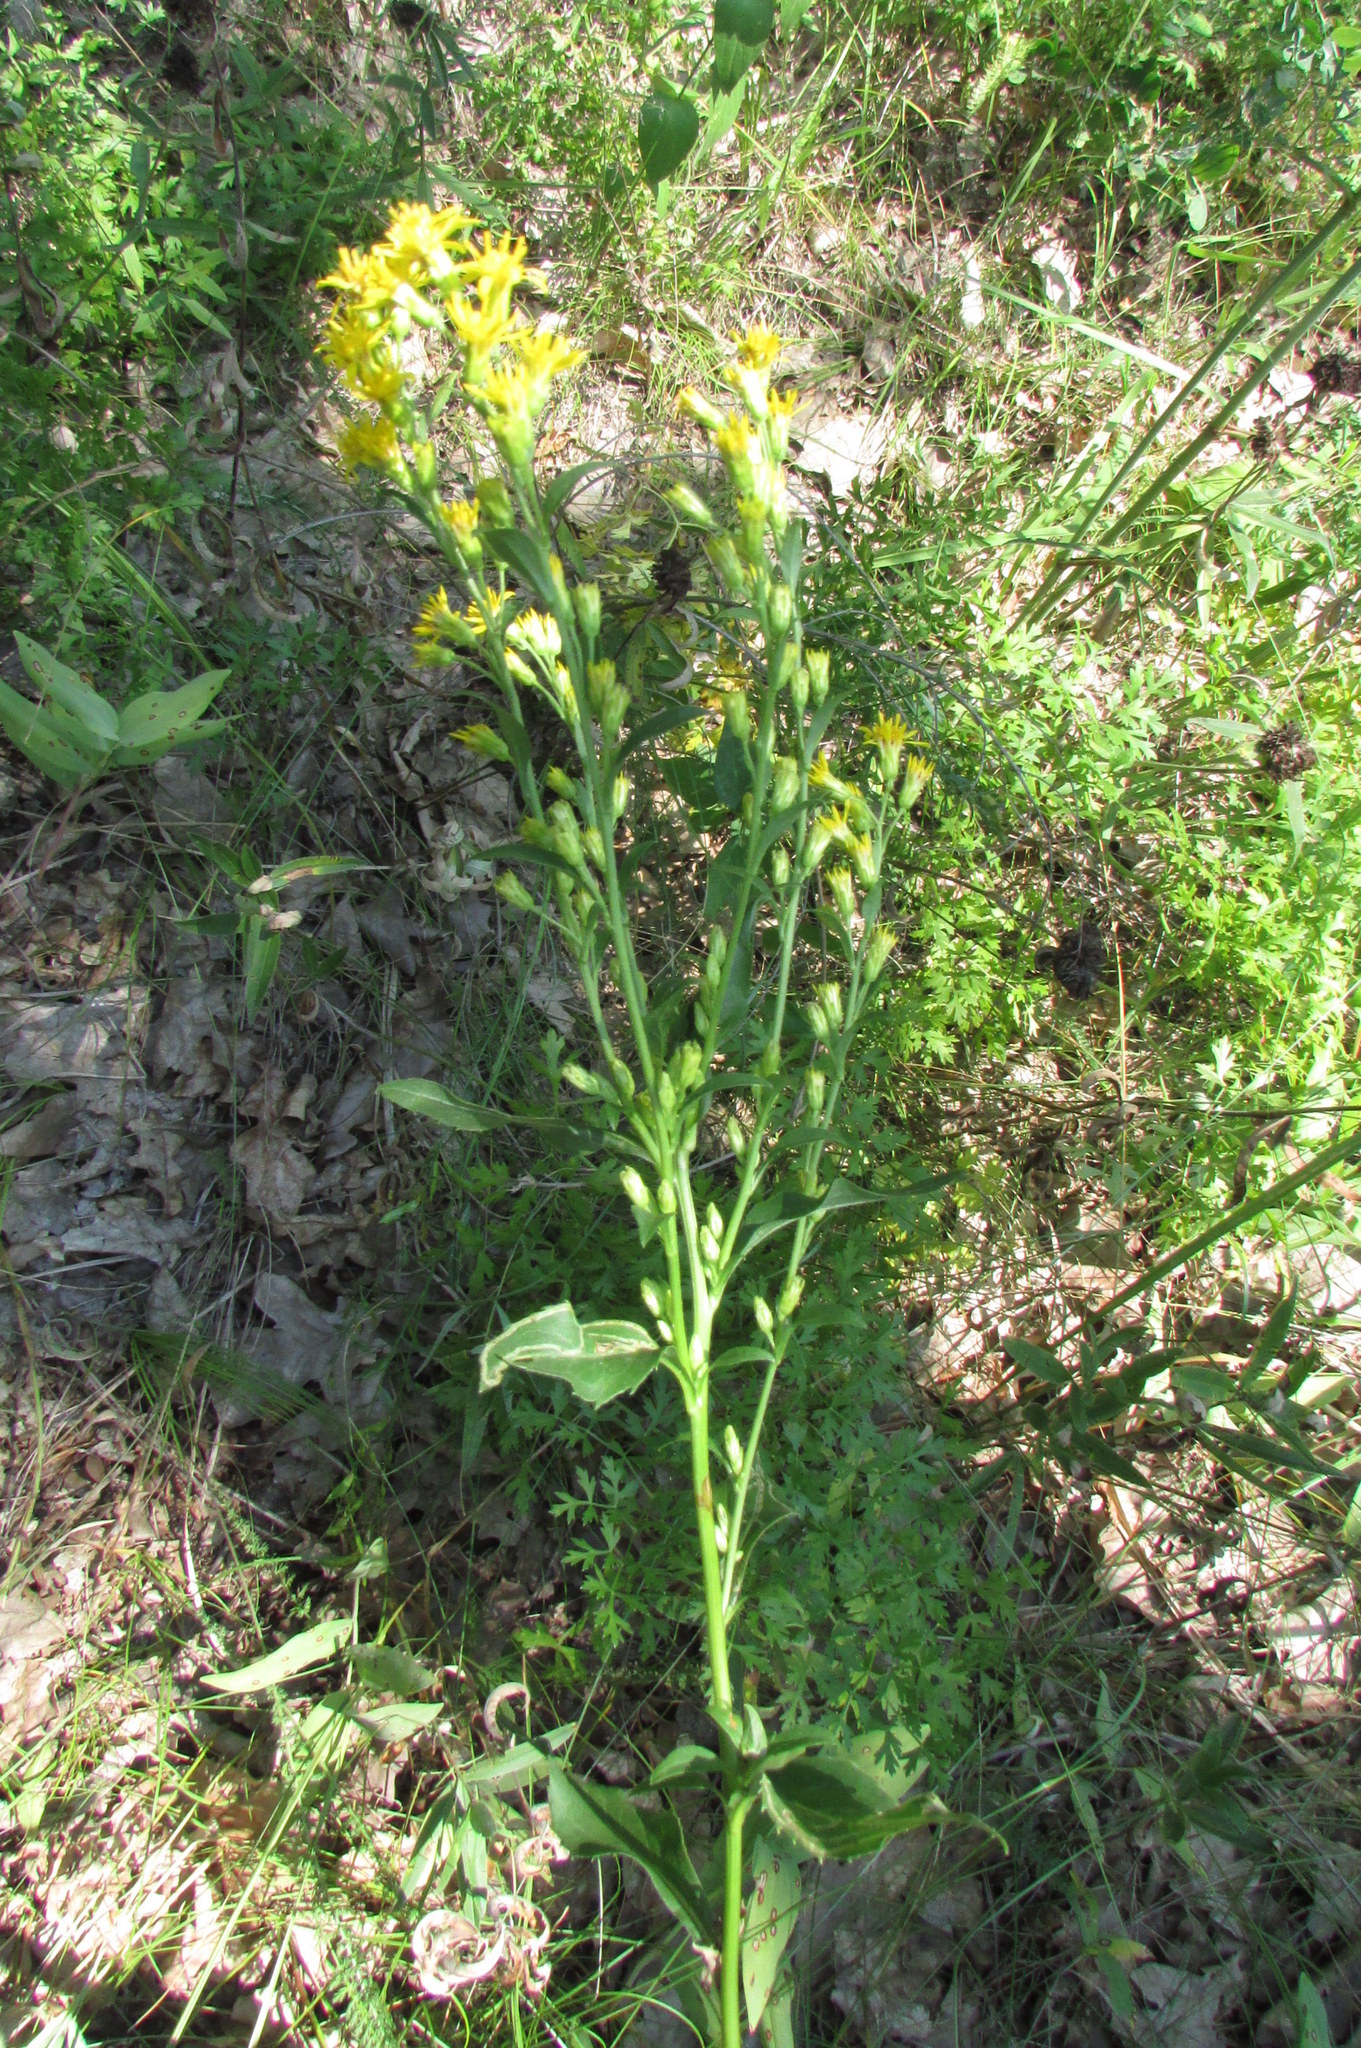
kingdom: Plantae
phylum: Tracheophyta
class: Magnoliopsida
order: Asterales
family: Asteraceae
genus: Solidago
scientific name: Solidago virgaurea
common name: Goldenrod
